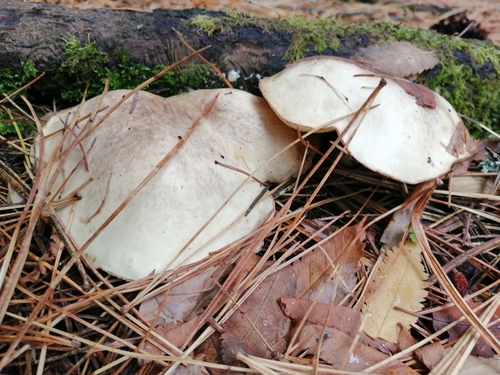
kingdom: Fungi
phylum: Basidiomycota
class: Agaricomycetes
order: Boletales
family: Suillaceae
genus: Suillus
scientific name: Suillus placidus
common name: Slippery white bolete
